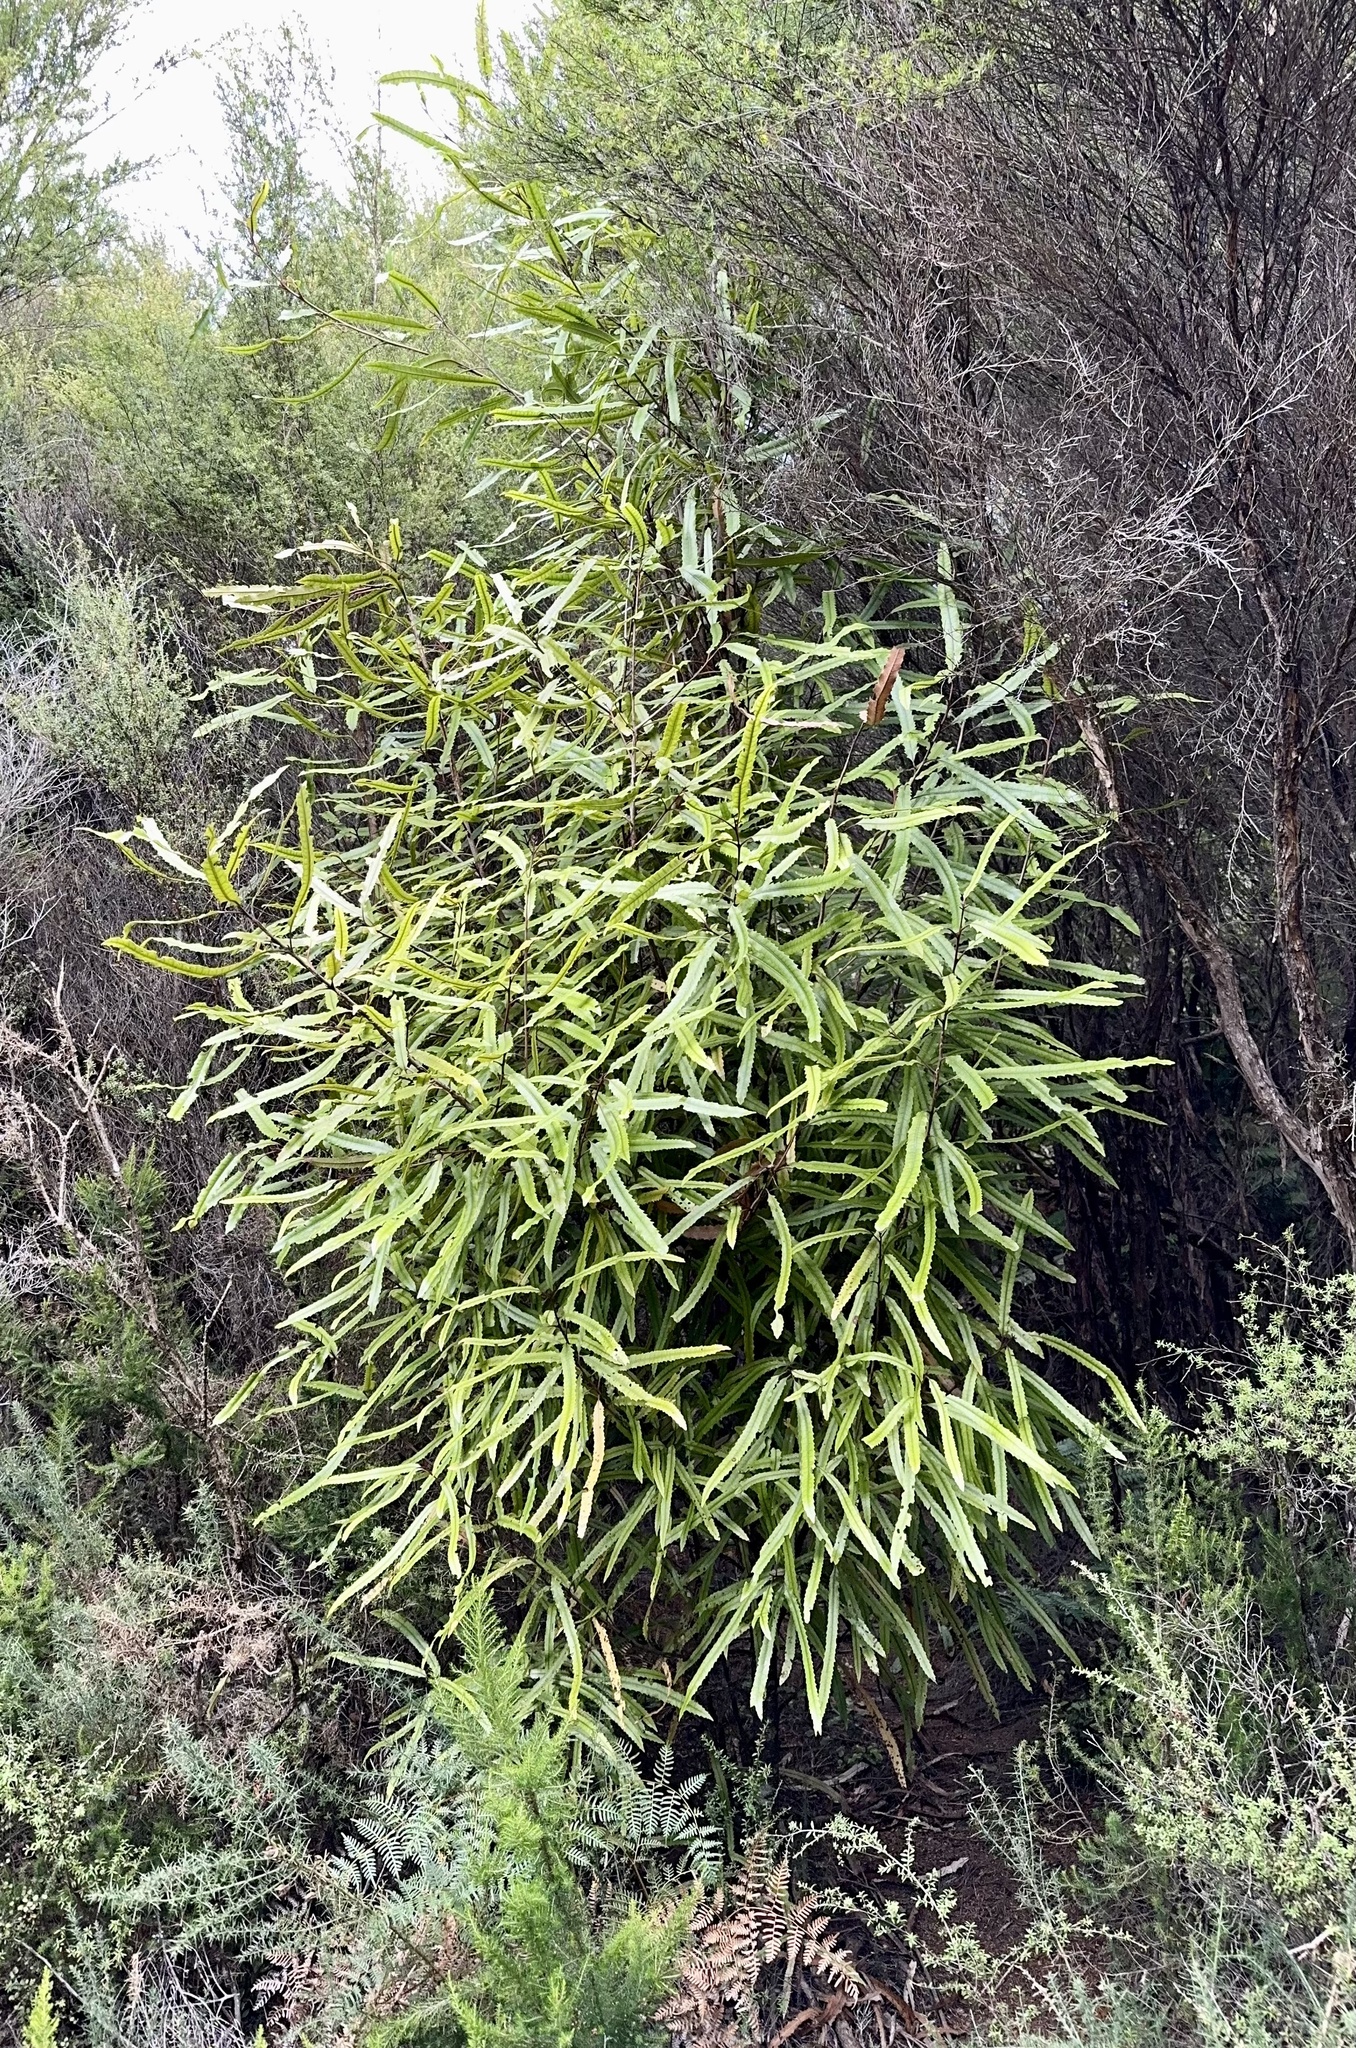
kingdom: Plantae
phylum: Tracheophyta
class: Magnoliopsida
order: Proteales
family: Proteaceae
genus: Knightia
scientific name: Knightia excelsa
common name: New zealand-honeysuckle
